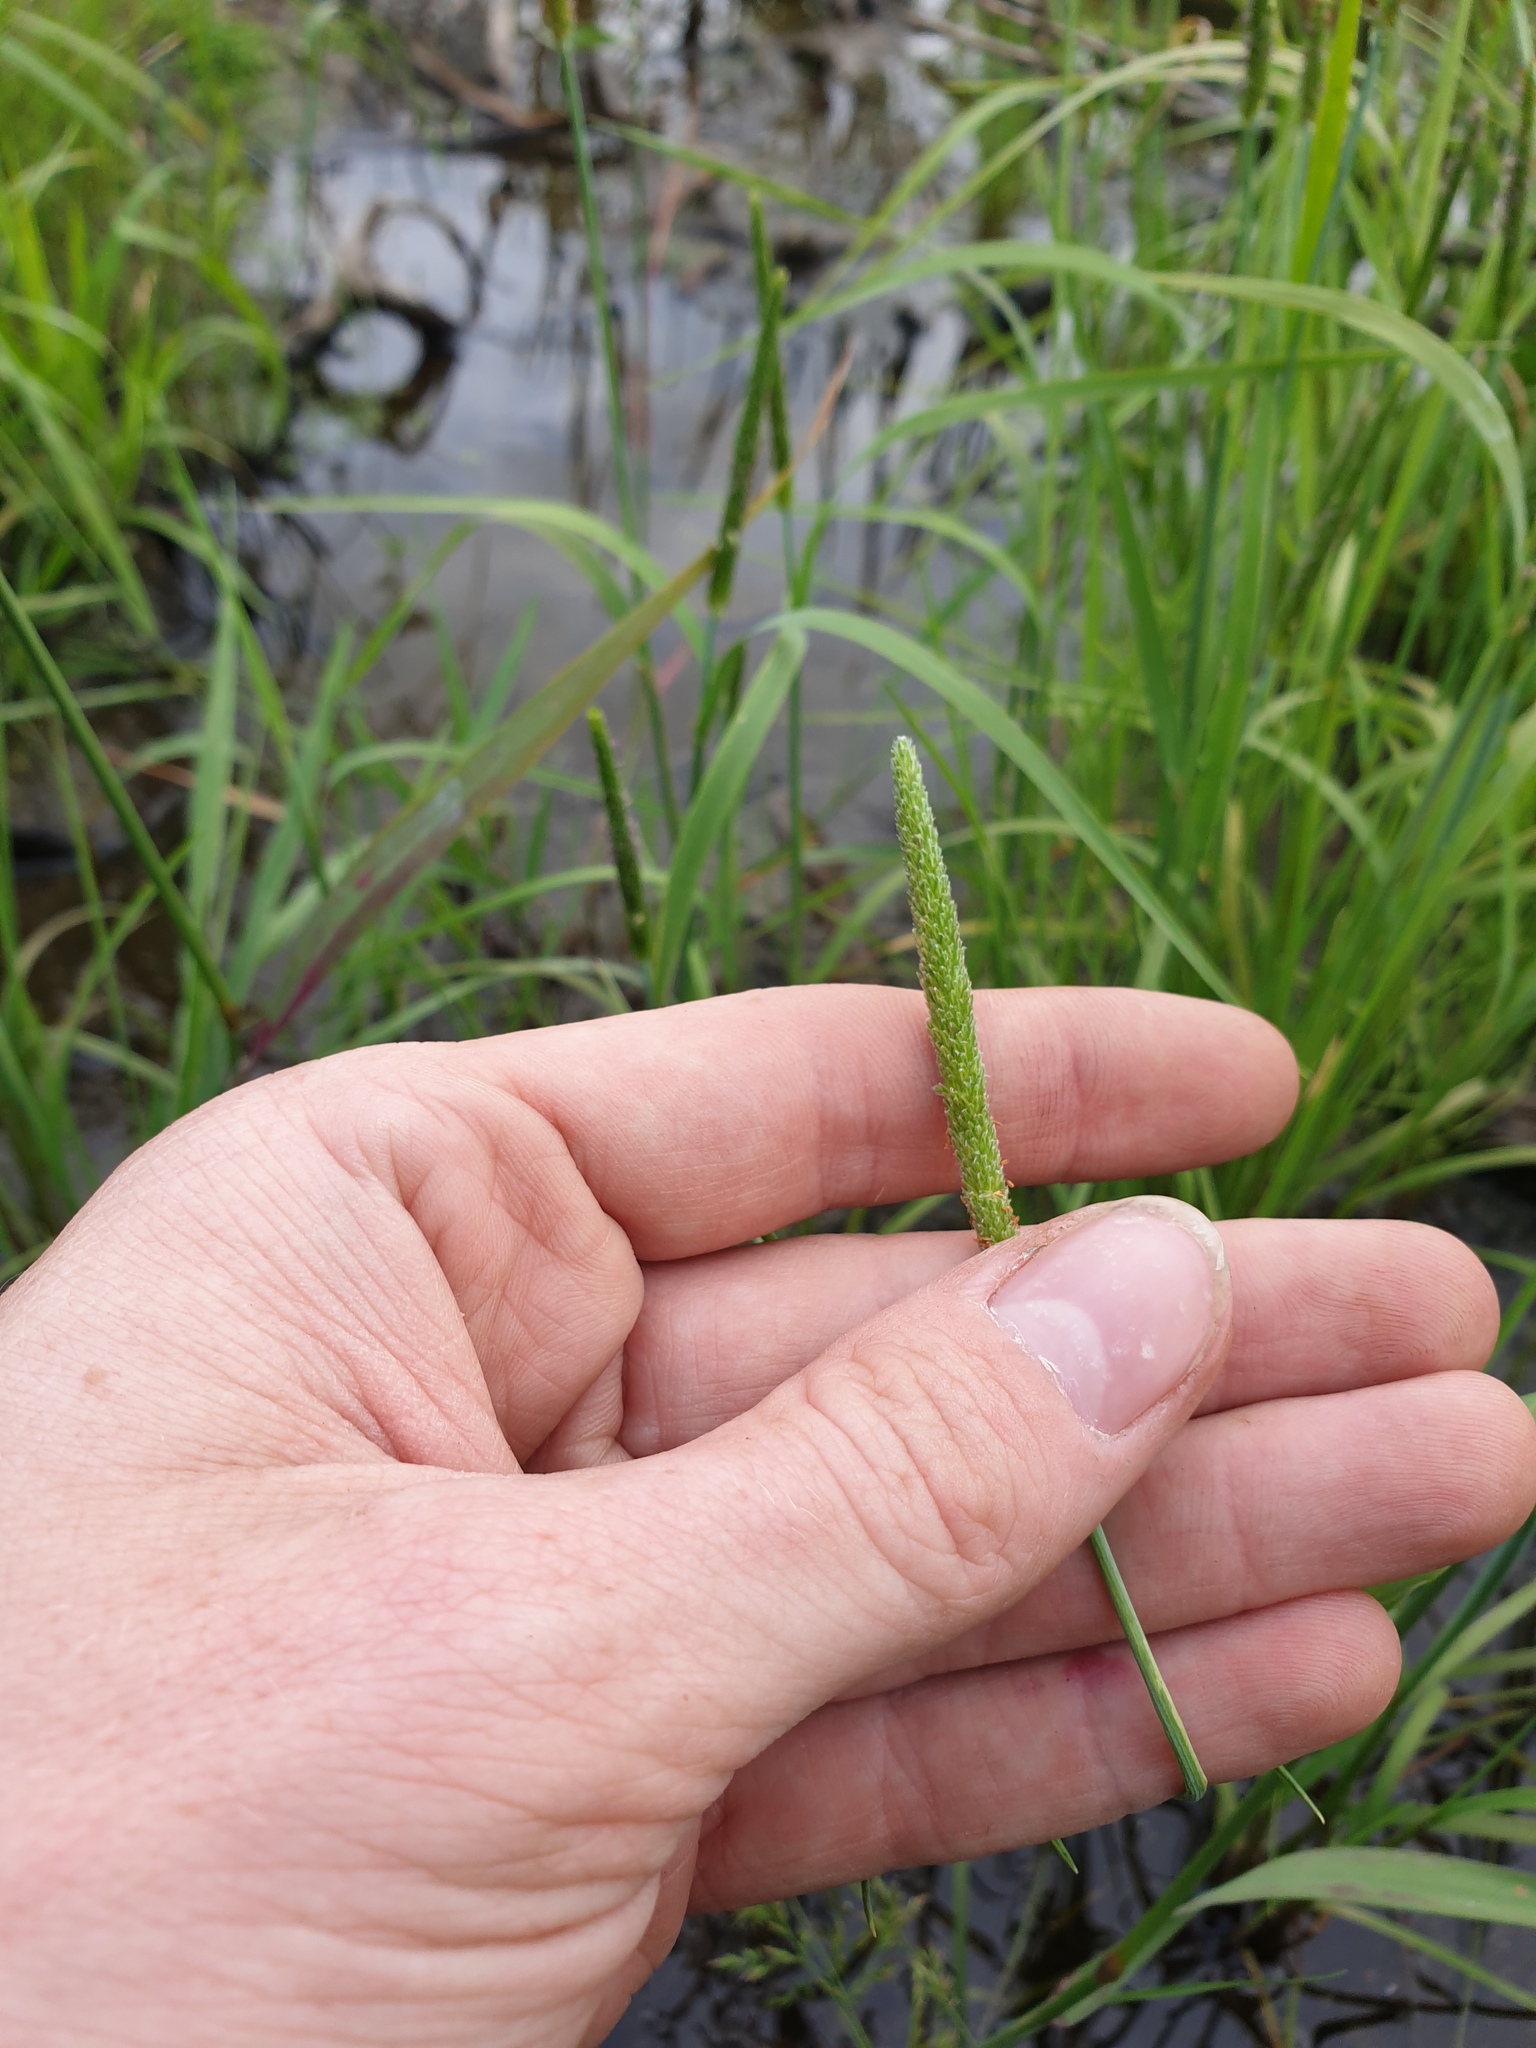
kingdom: Plantae
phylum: Tracheophyta
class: Liliopsida
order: Poales
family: Poaceae
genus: Alopecurus
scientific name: Alopecurus aequalis
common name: Orange foxtail
